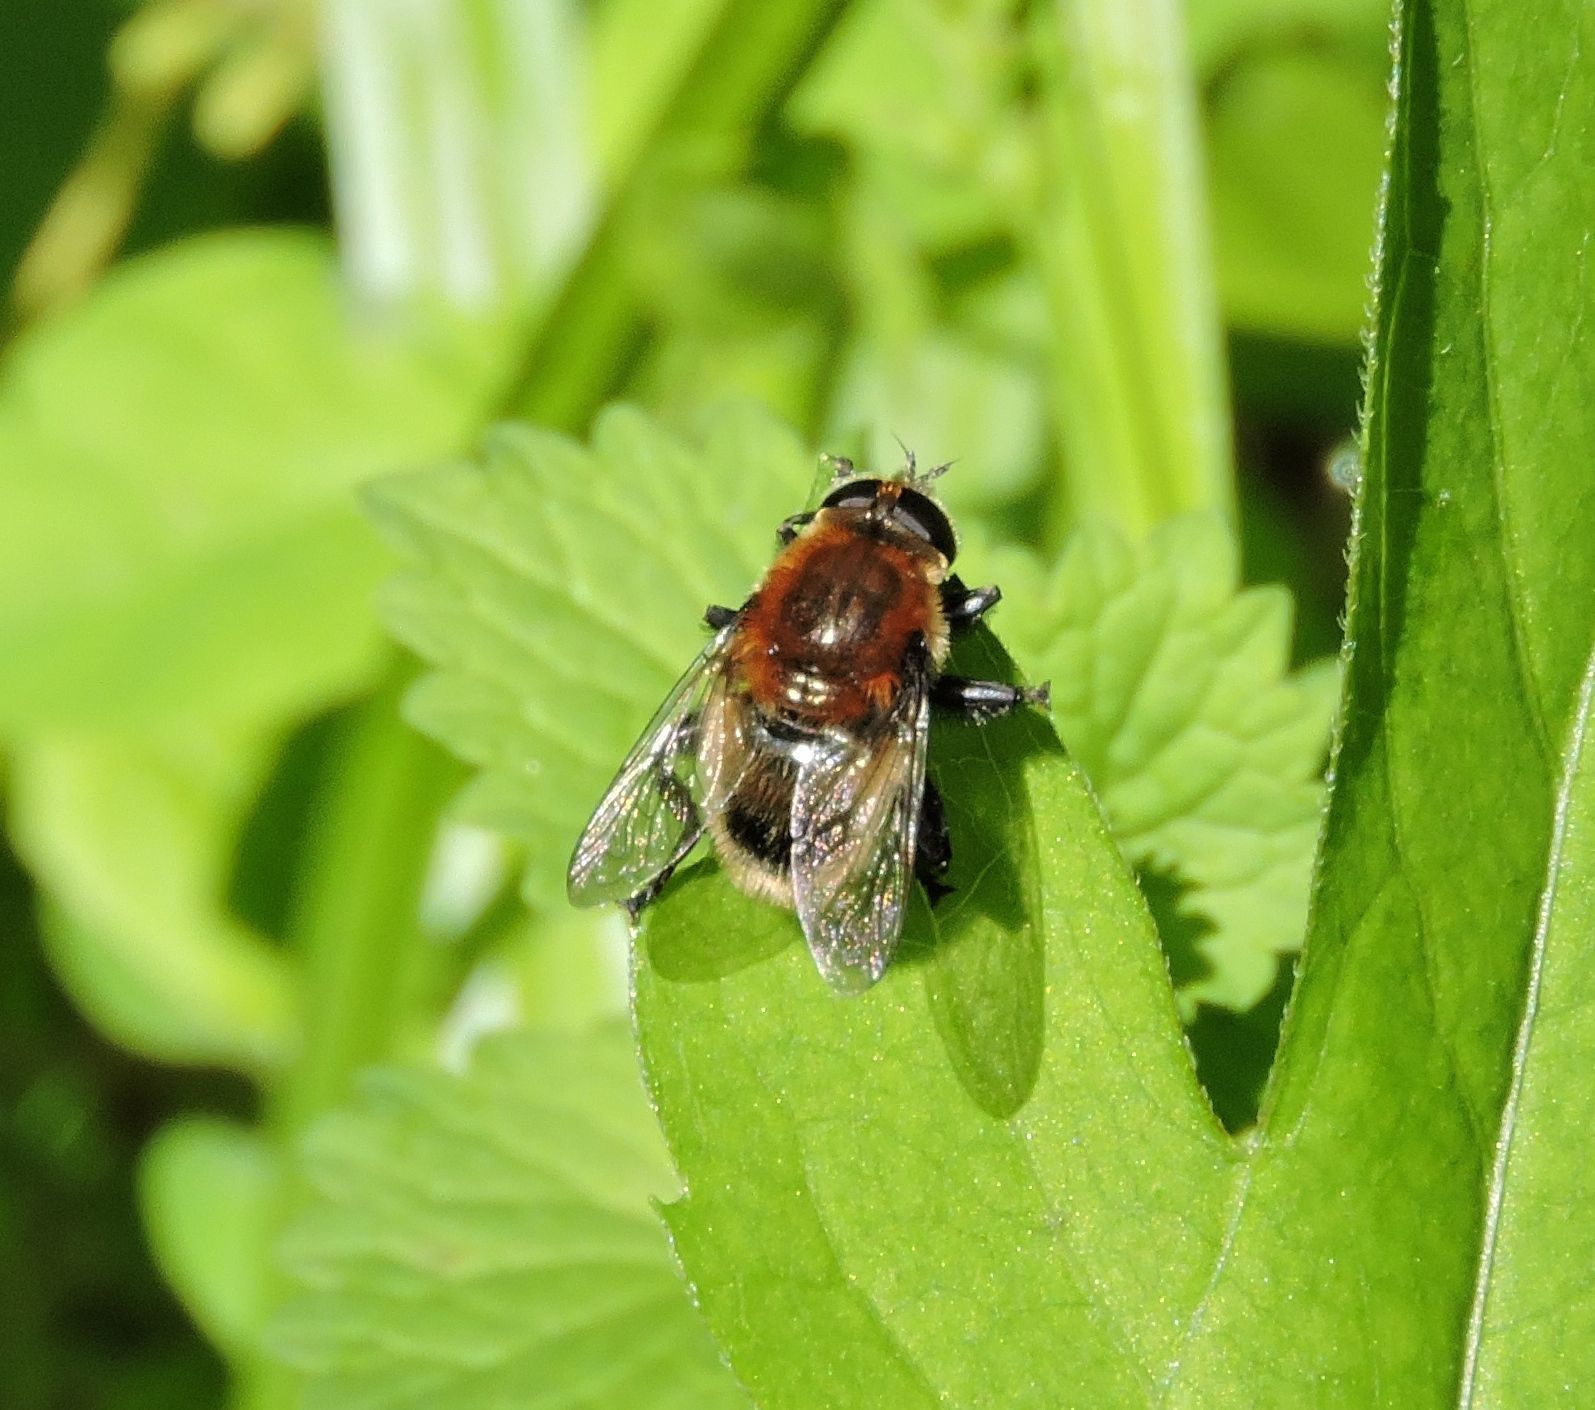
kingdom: Animalia
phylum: Arthropoda
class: Insecta
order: Diptera
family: Syrphidae
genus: Merodon
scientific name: Merodon equestris
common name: Greater bulb-fly
